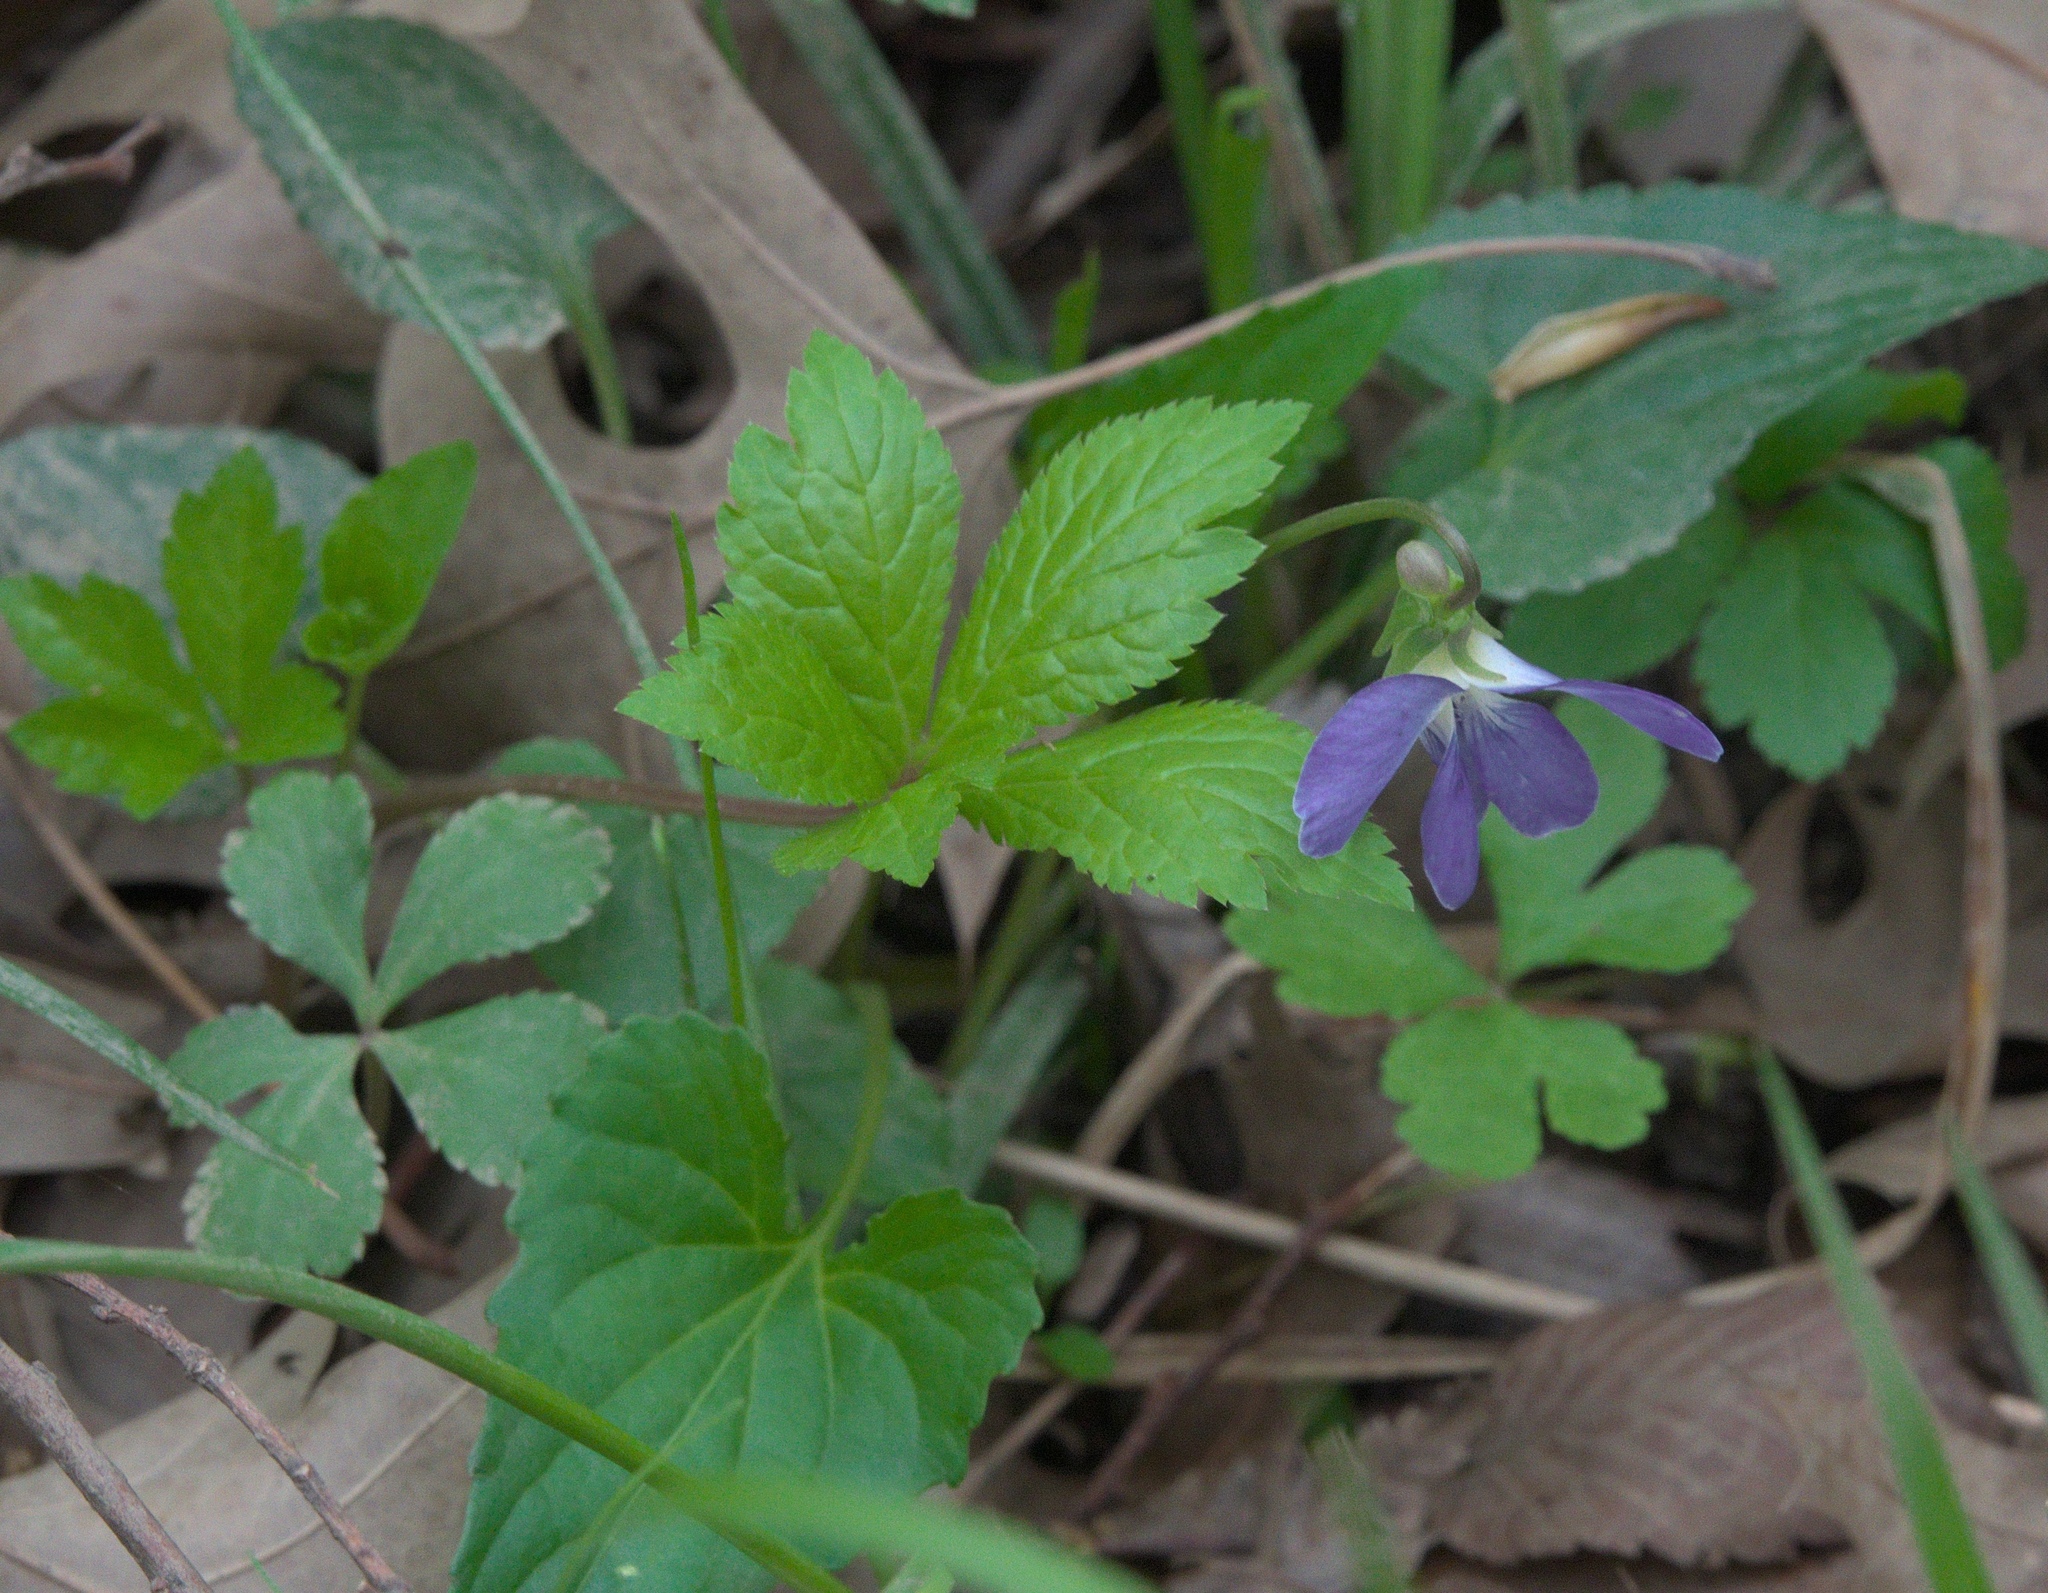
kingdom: Plantae
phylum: Tracheophyta
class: Magnoliopsida
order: Malpighiales
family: Violaceae
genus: Viola
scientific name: Viola sororia
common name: Dooryard violet
